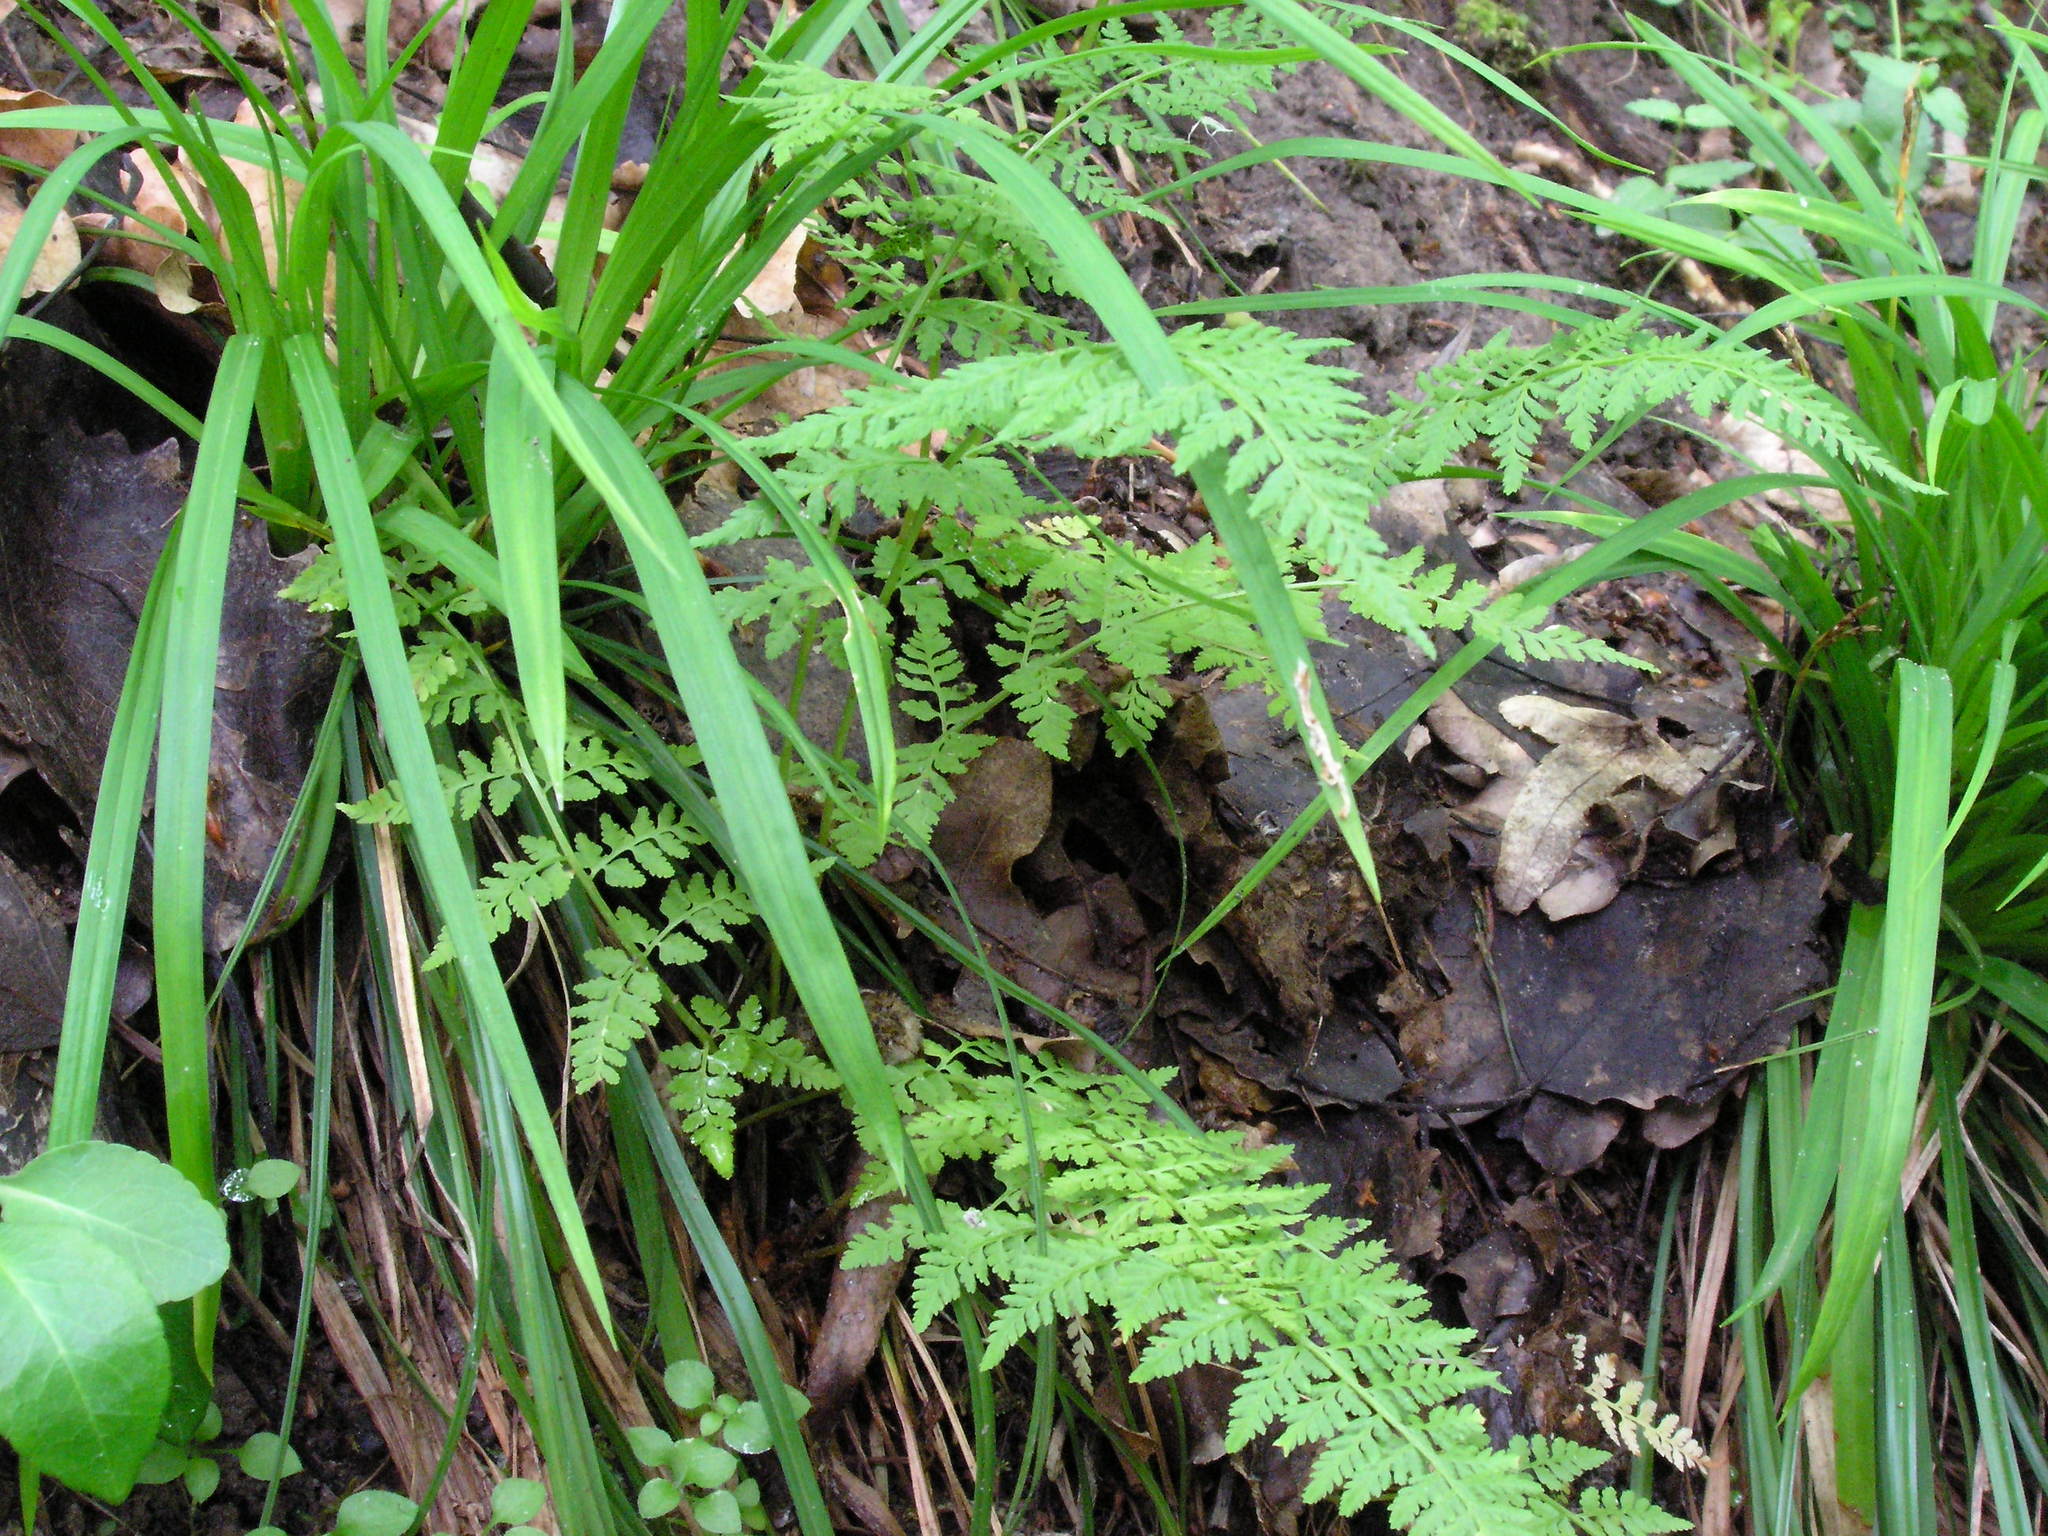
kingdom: Plantae
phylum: Tracheophyta
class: Polypodiopsida
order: Polypodiales
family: Cystopteridaceae
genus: Cystopteris
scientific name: Cystopteris fragilis
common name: Brittle bladder fern
